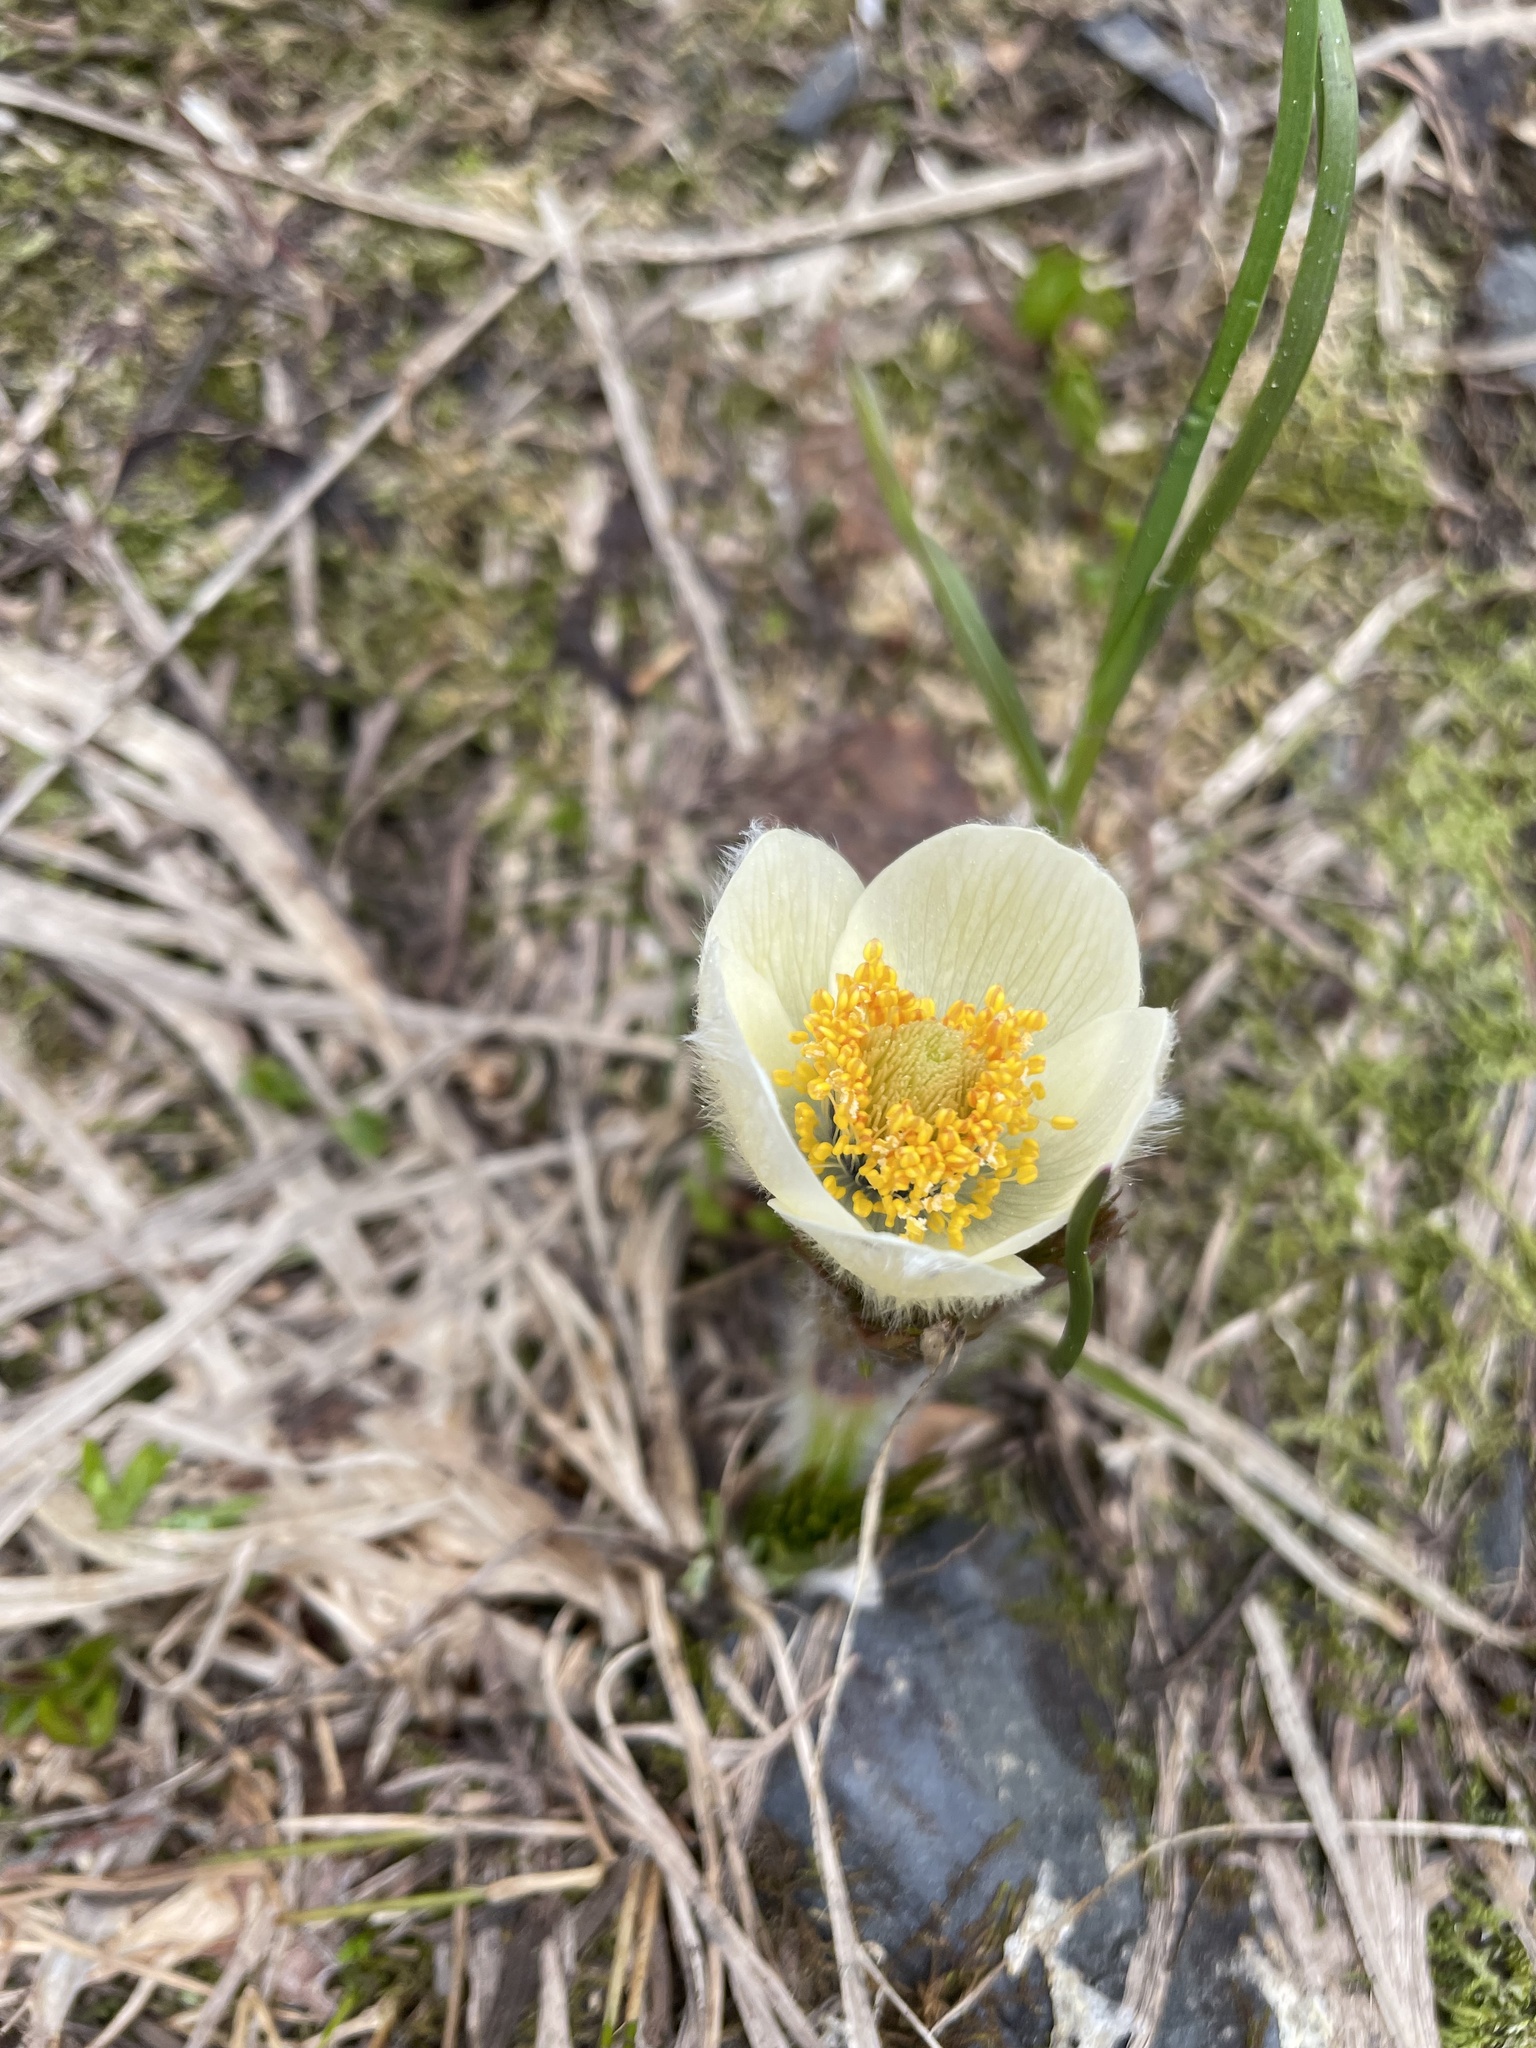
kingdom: Plantae
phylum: Tracheophyta
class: Magnoliopsida
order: Ranunculales
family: Ranunculaceae
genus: Pulsatilla
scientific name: Pulsatilla occidentalis
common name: Mountain pasqueflower
